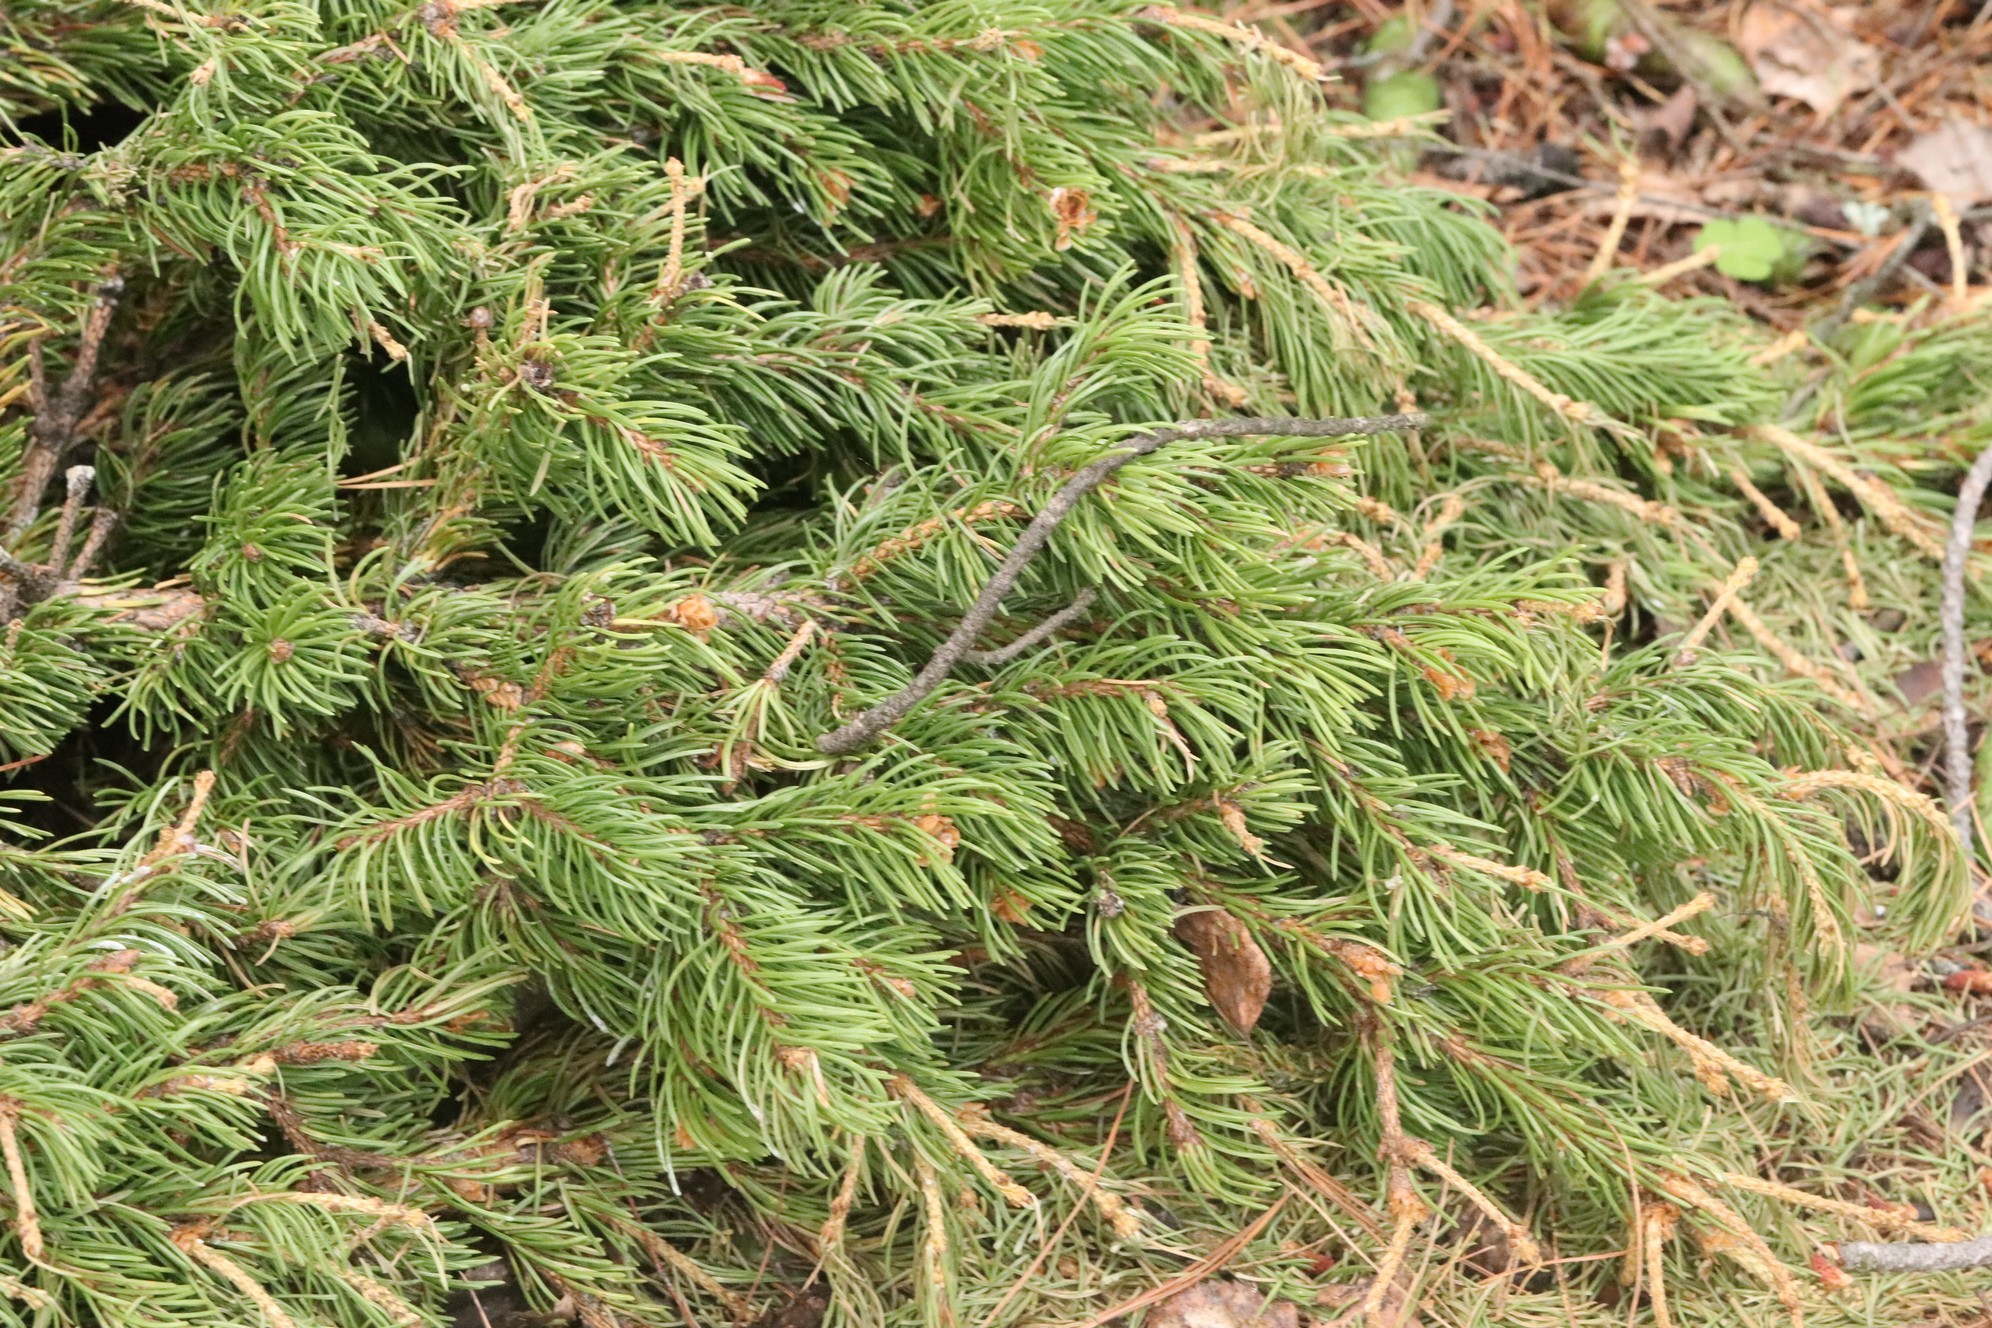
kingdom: Plantae
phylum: Tracheophyta
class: Pinopsida
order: Pinales
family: Pinaceae
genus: Picea
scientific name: Picea obovata
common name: Siberian spruce
